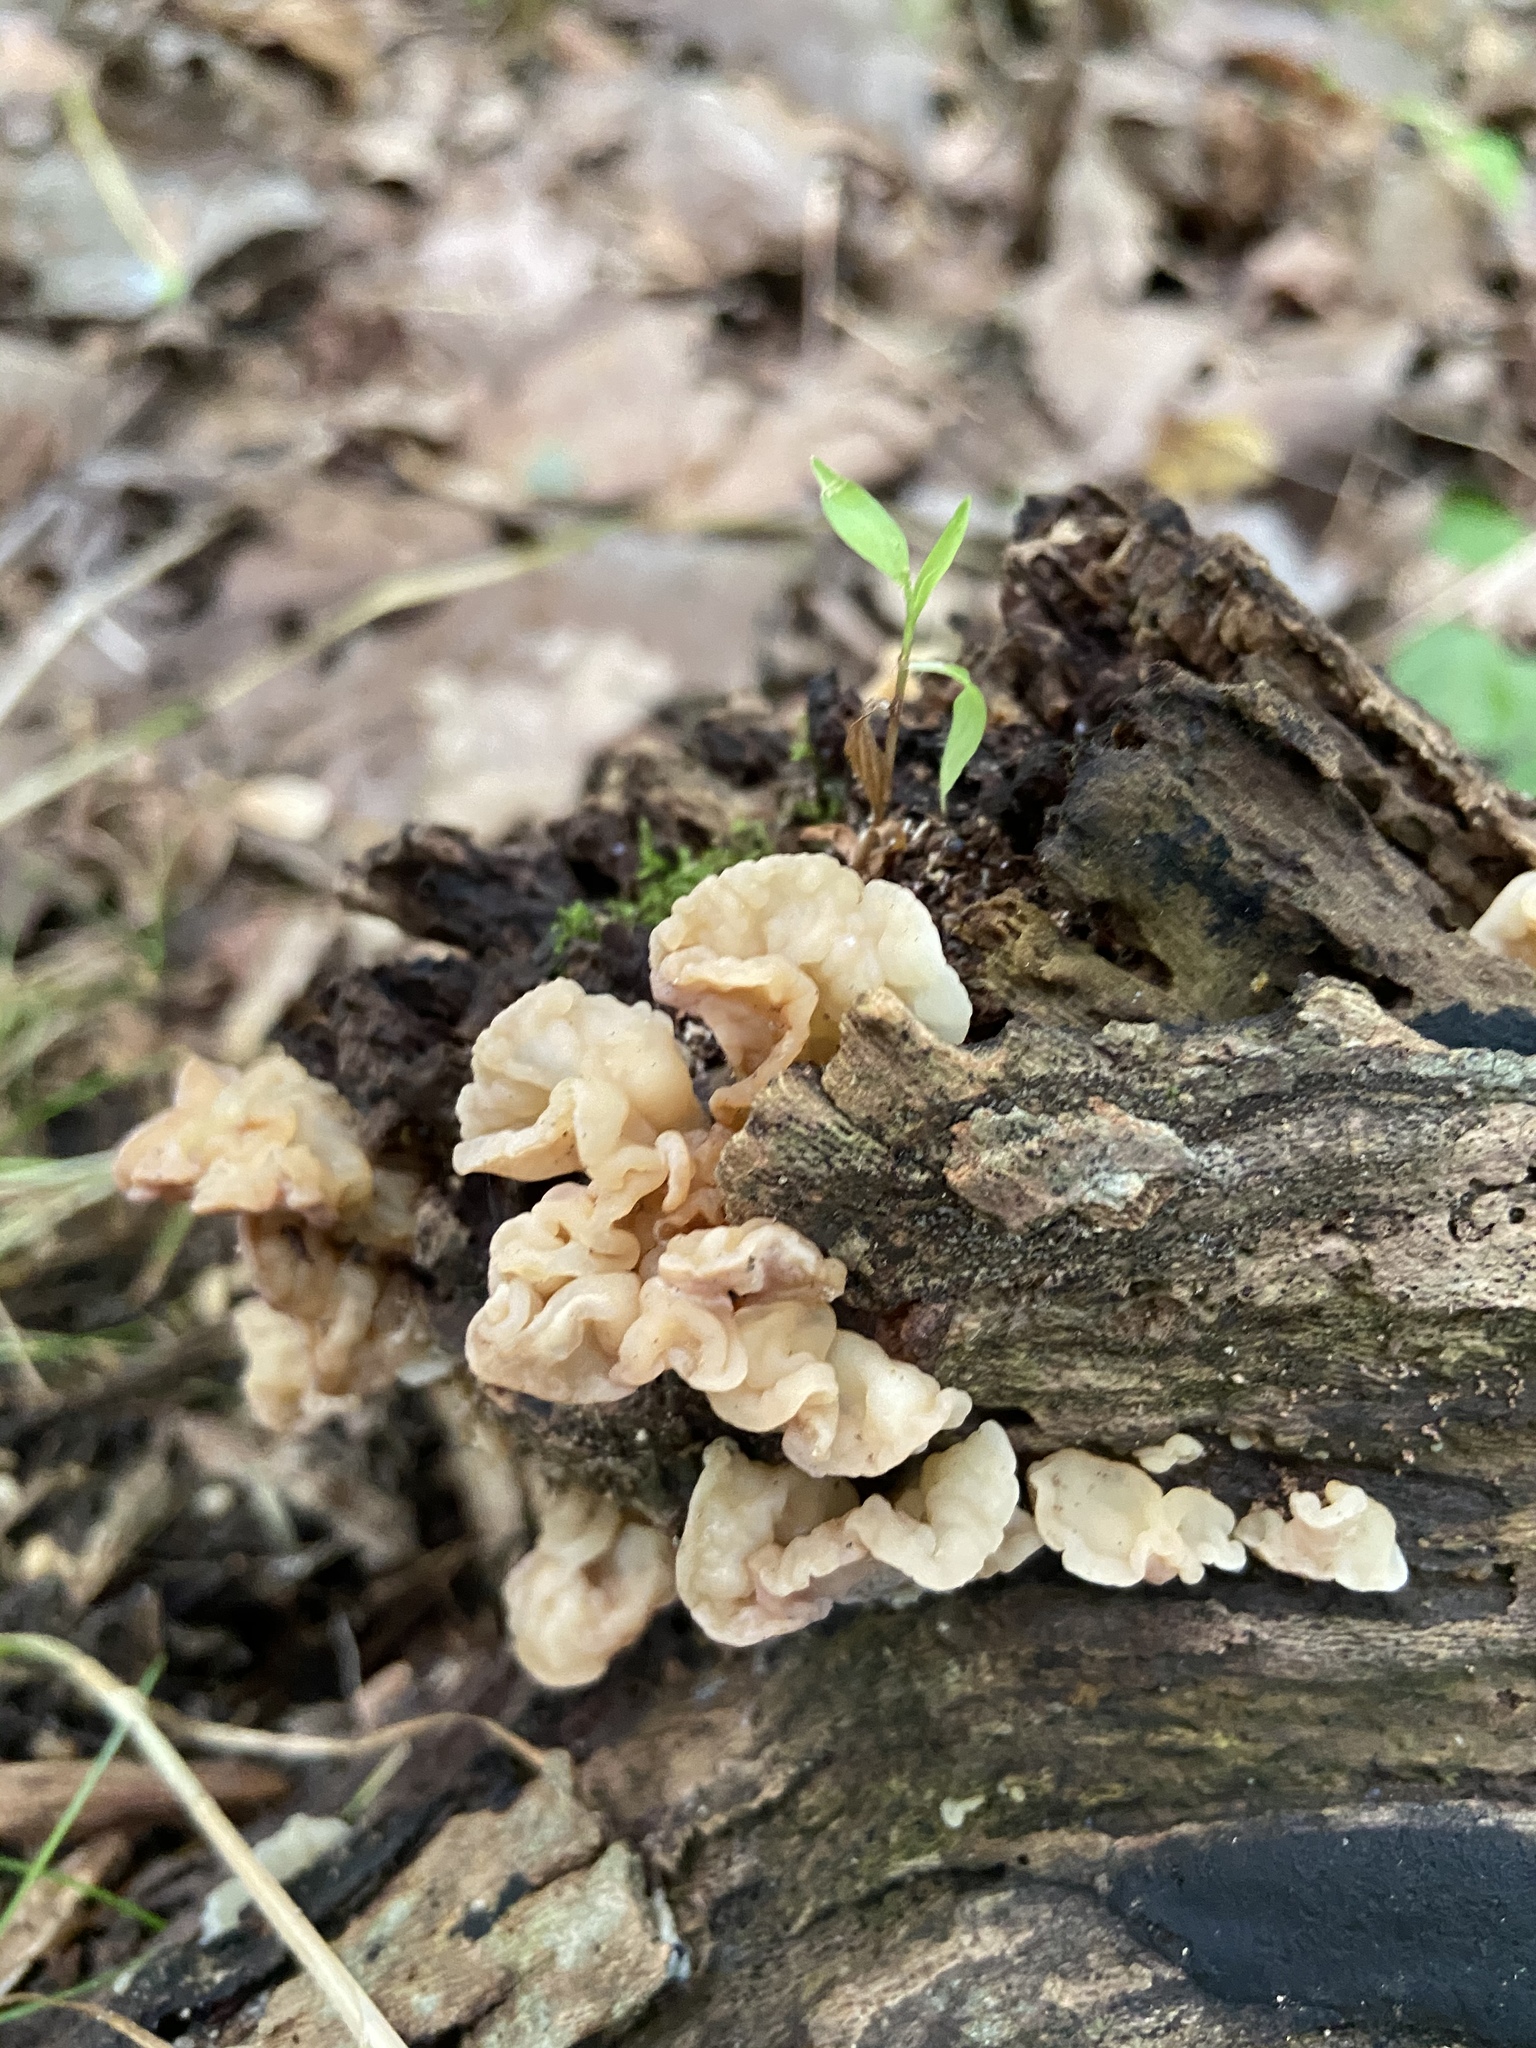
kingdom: Fungi
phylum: Basidiomycota
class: Agaricomycetes
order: Auriculariales
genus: Ductifera
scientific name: Ductifera pululahuana
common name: White jelly fungus
